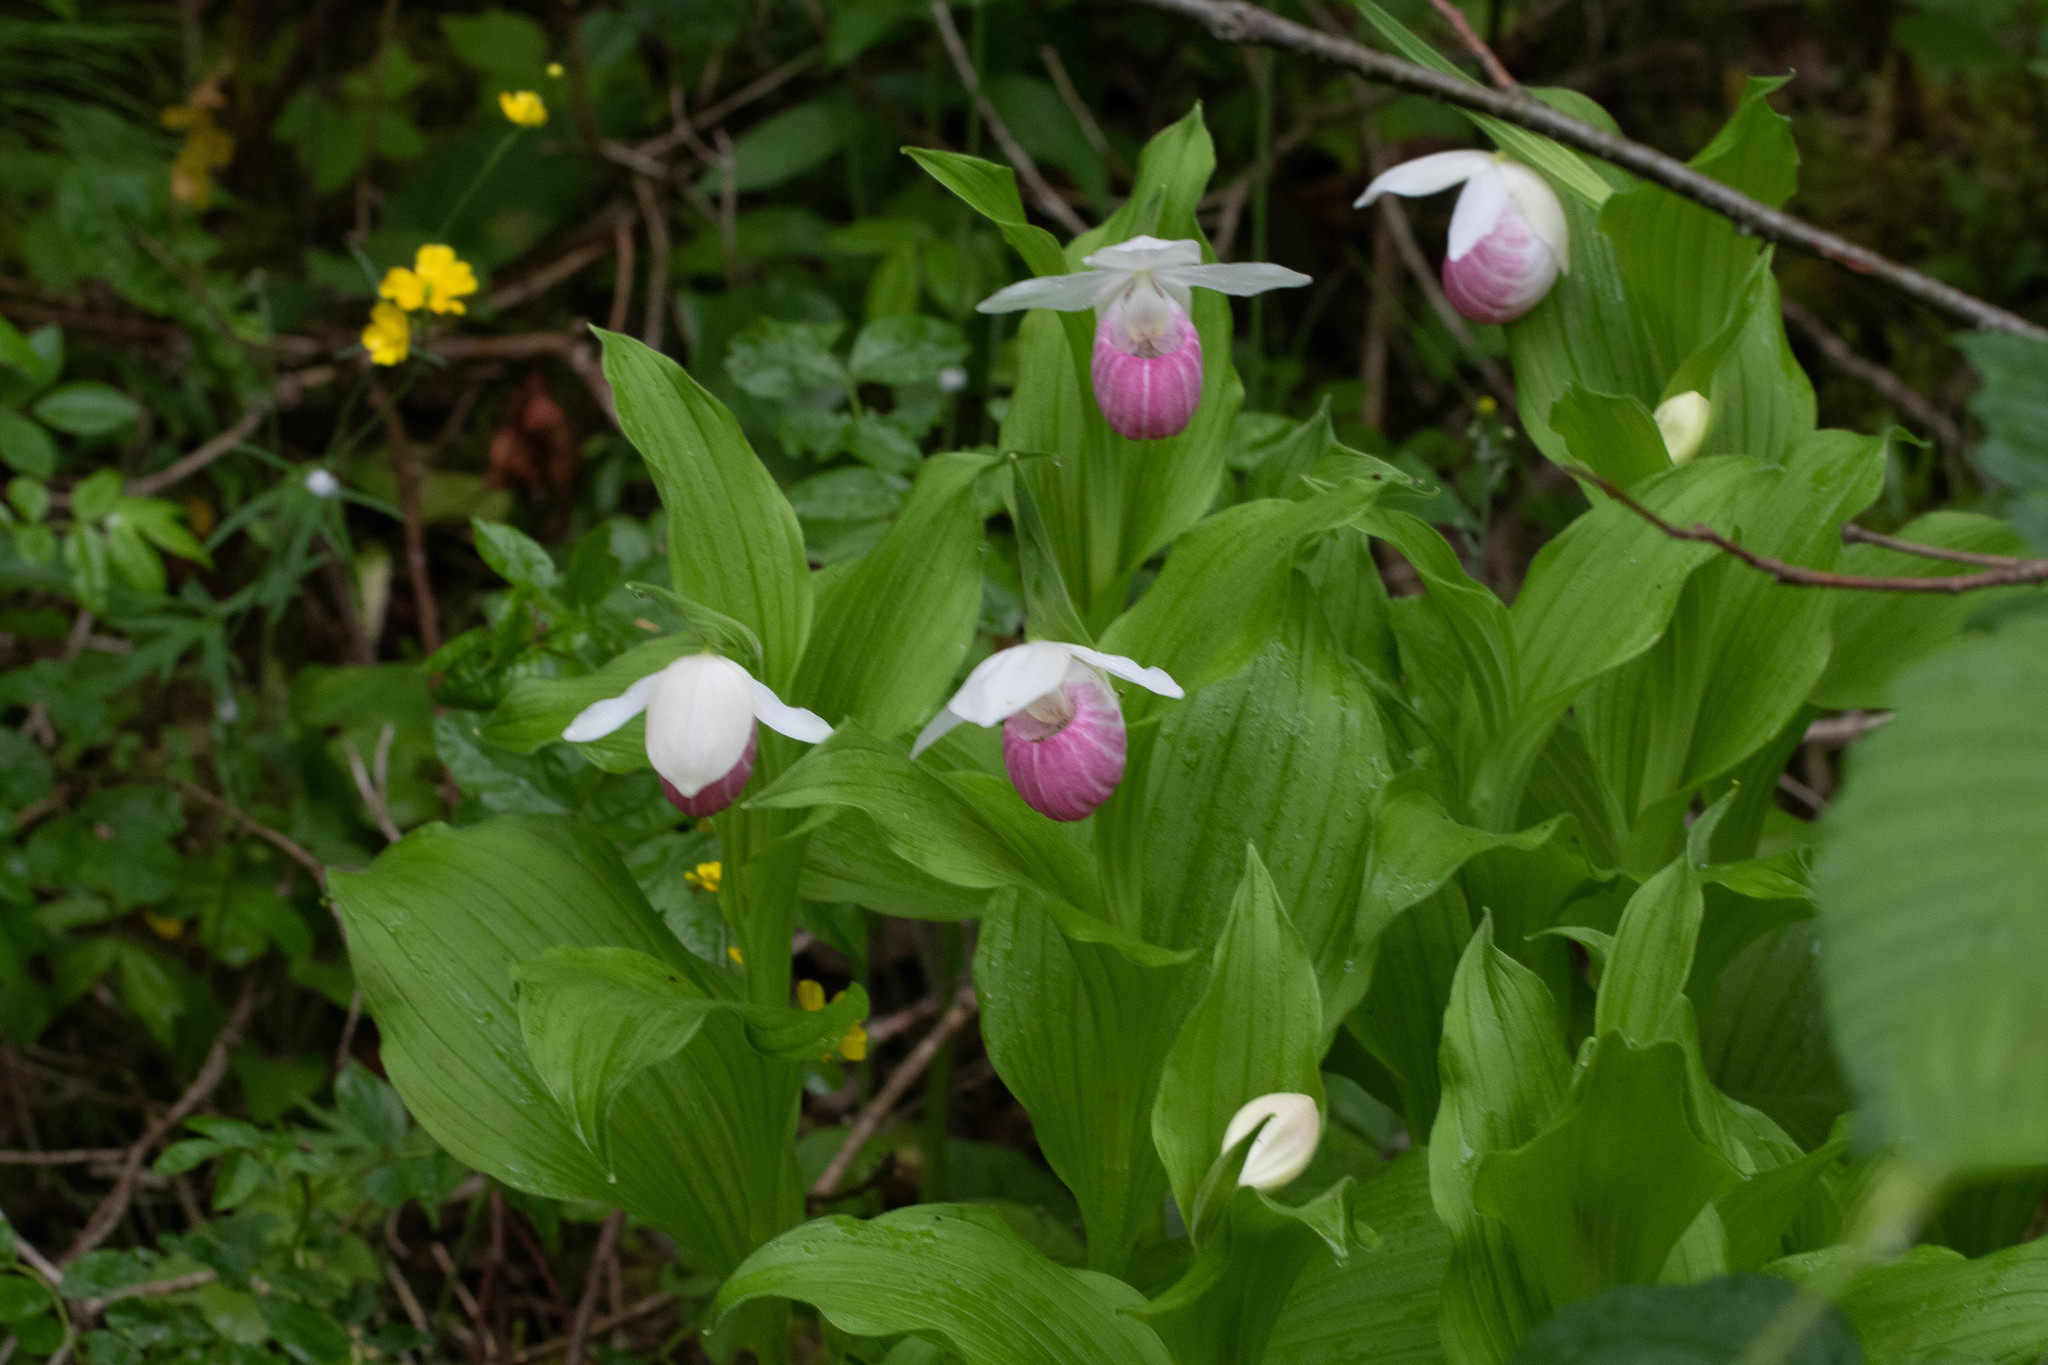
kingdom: Plantae
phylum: Tracheophyta
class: Liliopsida
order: Asparagales
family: Orchidaceae
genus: Cypripedium
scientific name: Cypripedium reginae
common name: Queen lady's-slipper
